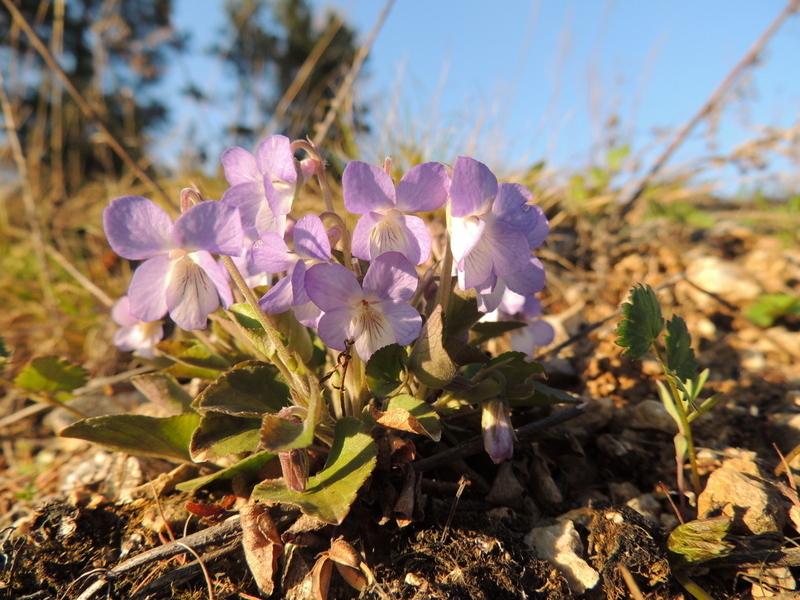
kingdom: Plantae
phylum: Tracheophyta
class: Magnoliopsida
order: Malpighiales
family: Violaceae
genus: Viola
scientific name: Viola rupestris
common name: Teesdale violet
